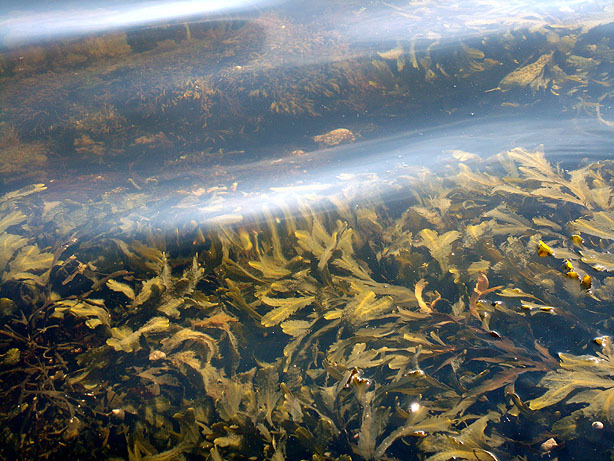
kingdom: Chromista
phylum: Ochrophyta
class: Phaeophyceae
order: Fucales
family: Fucaceae
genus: Fucus
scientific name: Fucus serratus
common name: Toothed wrack
